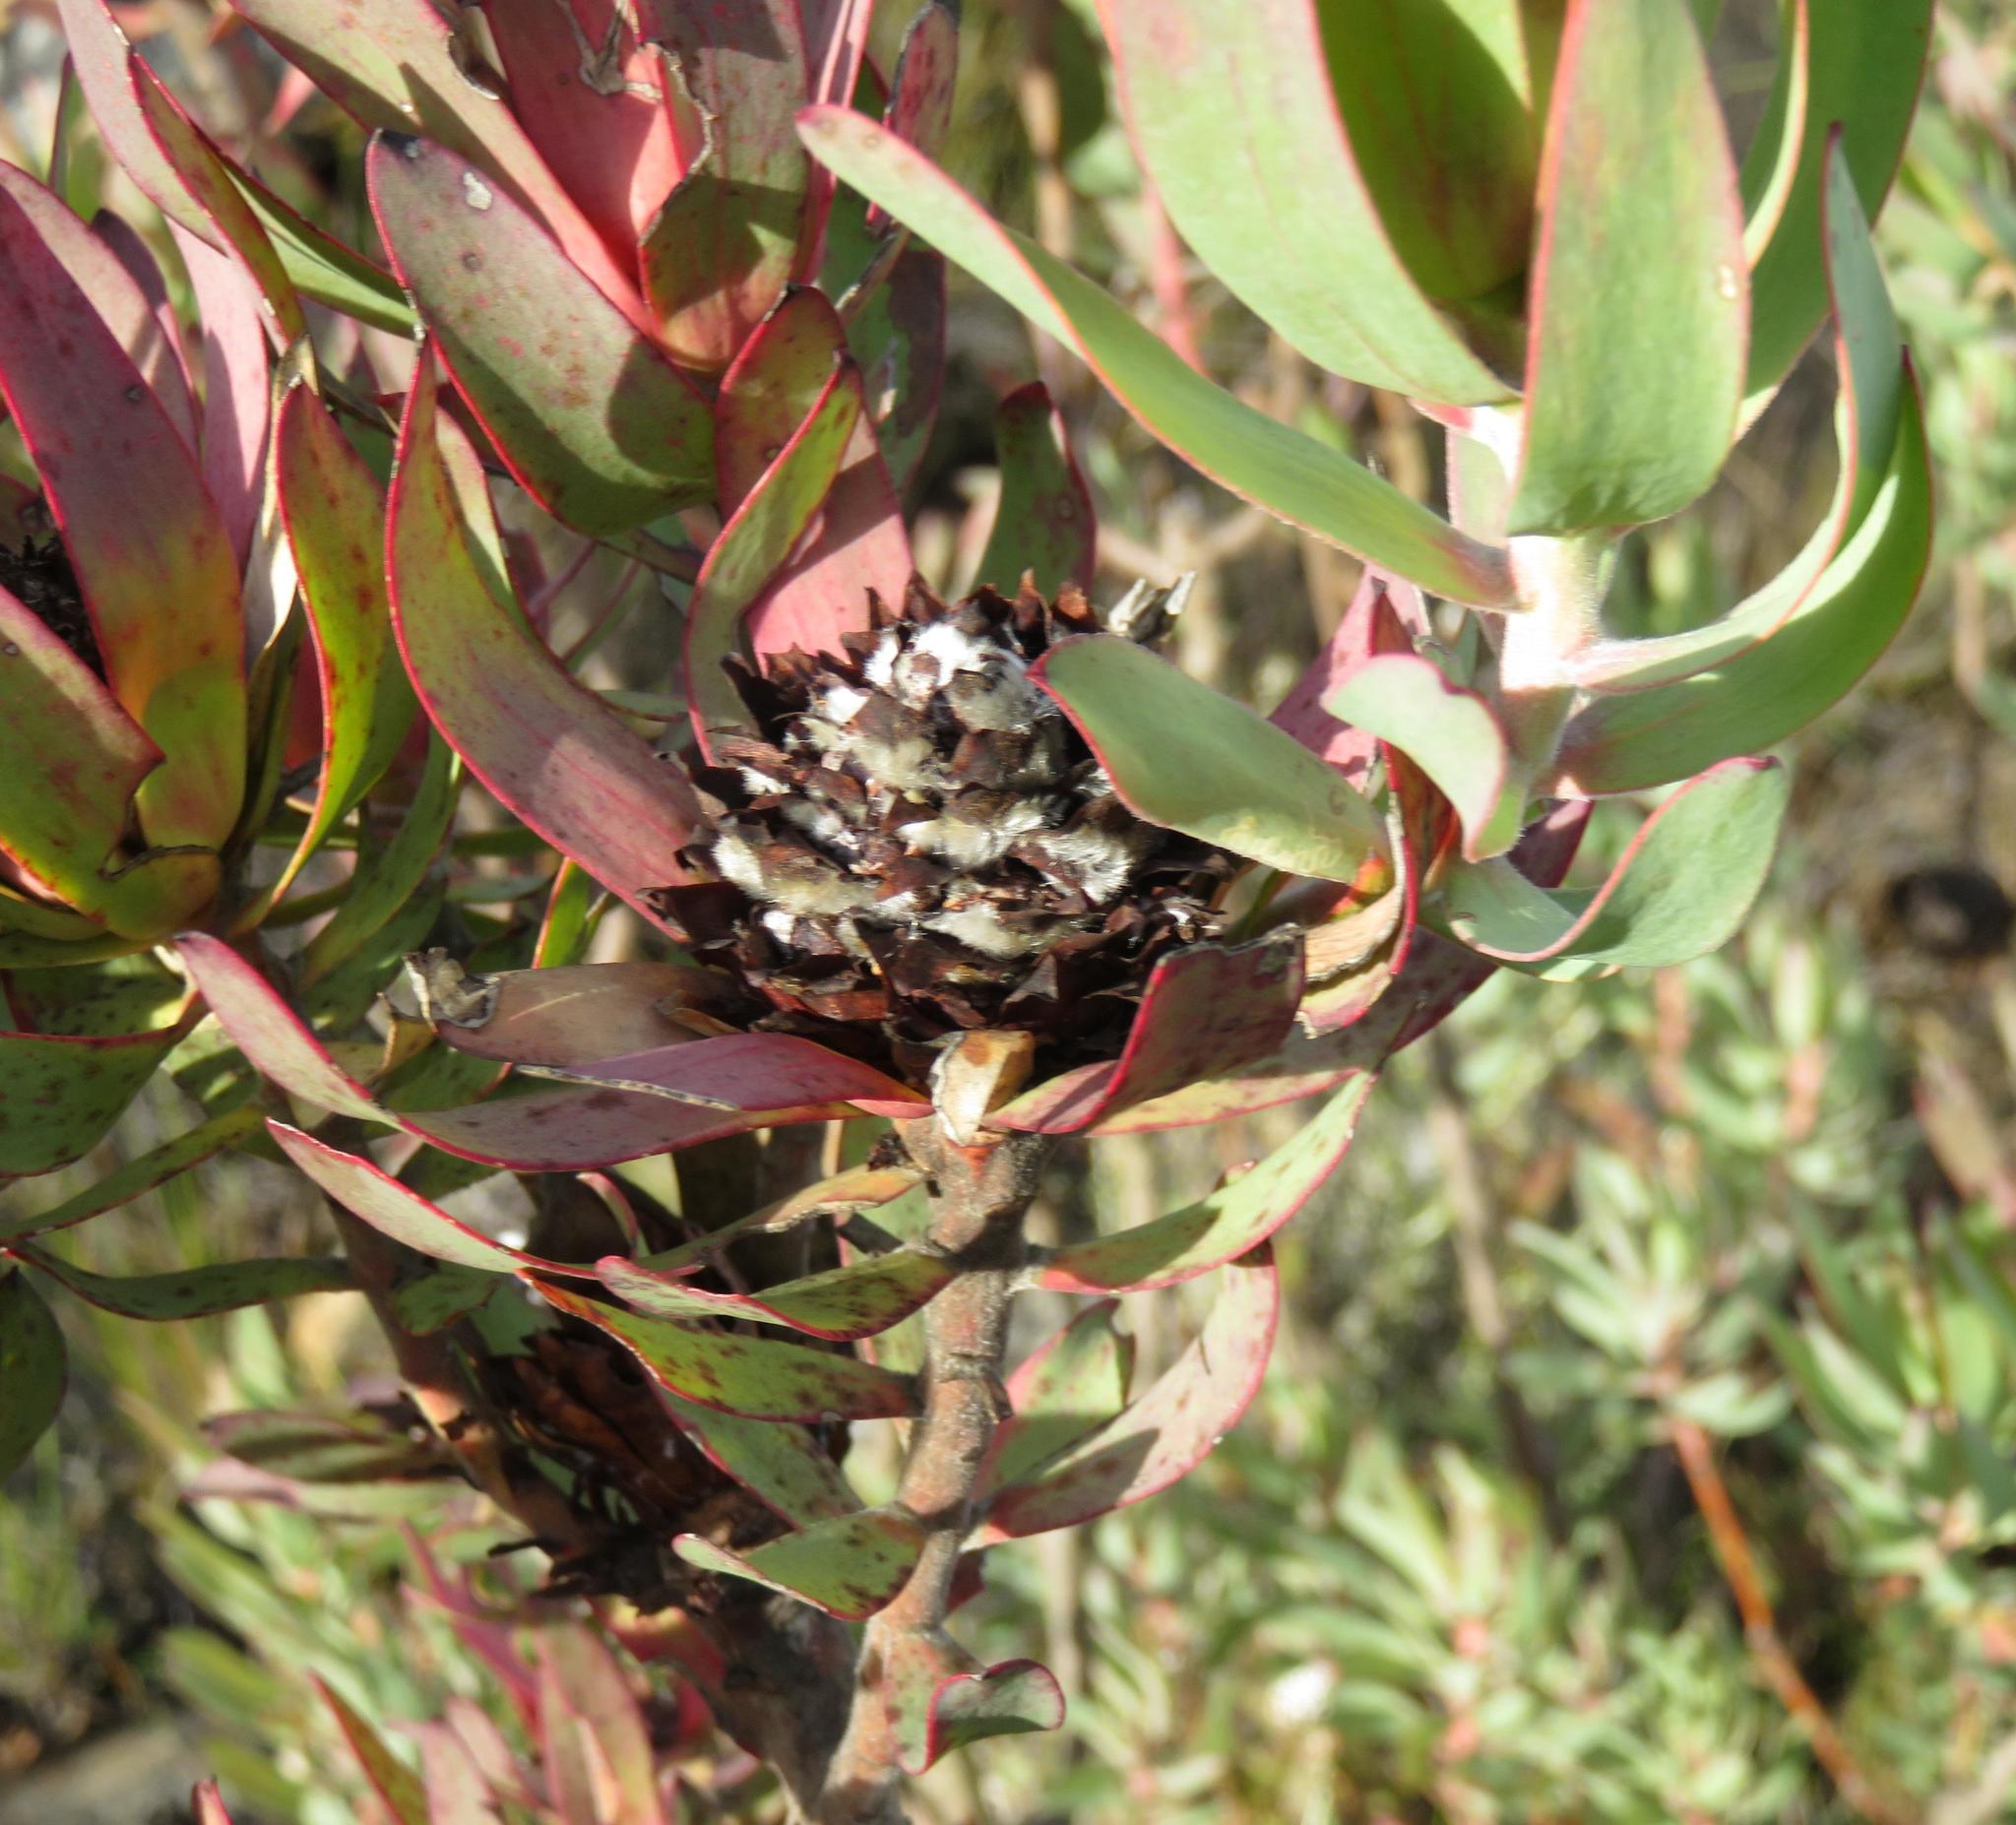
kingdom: Plantae
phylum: Tracheophyta
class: Magnoliopsida
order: Proteales
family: Proteaceae
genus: Leucadendron
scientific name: Leucadendron barkerae
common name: Swartberg conebush
